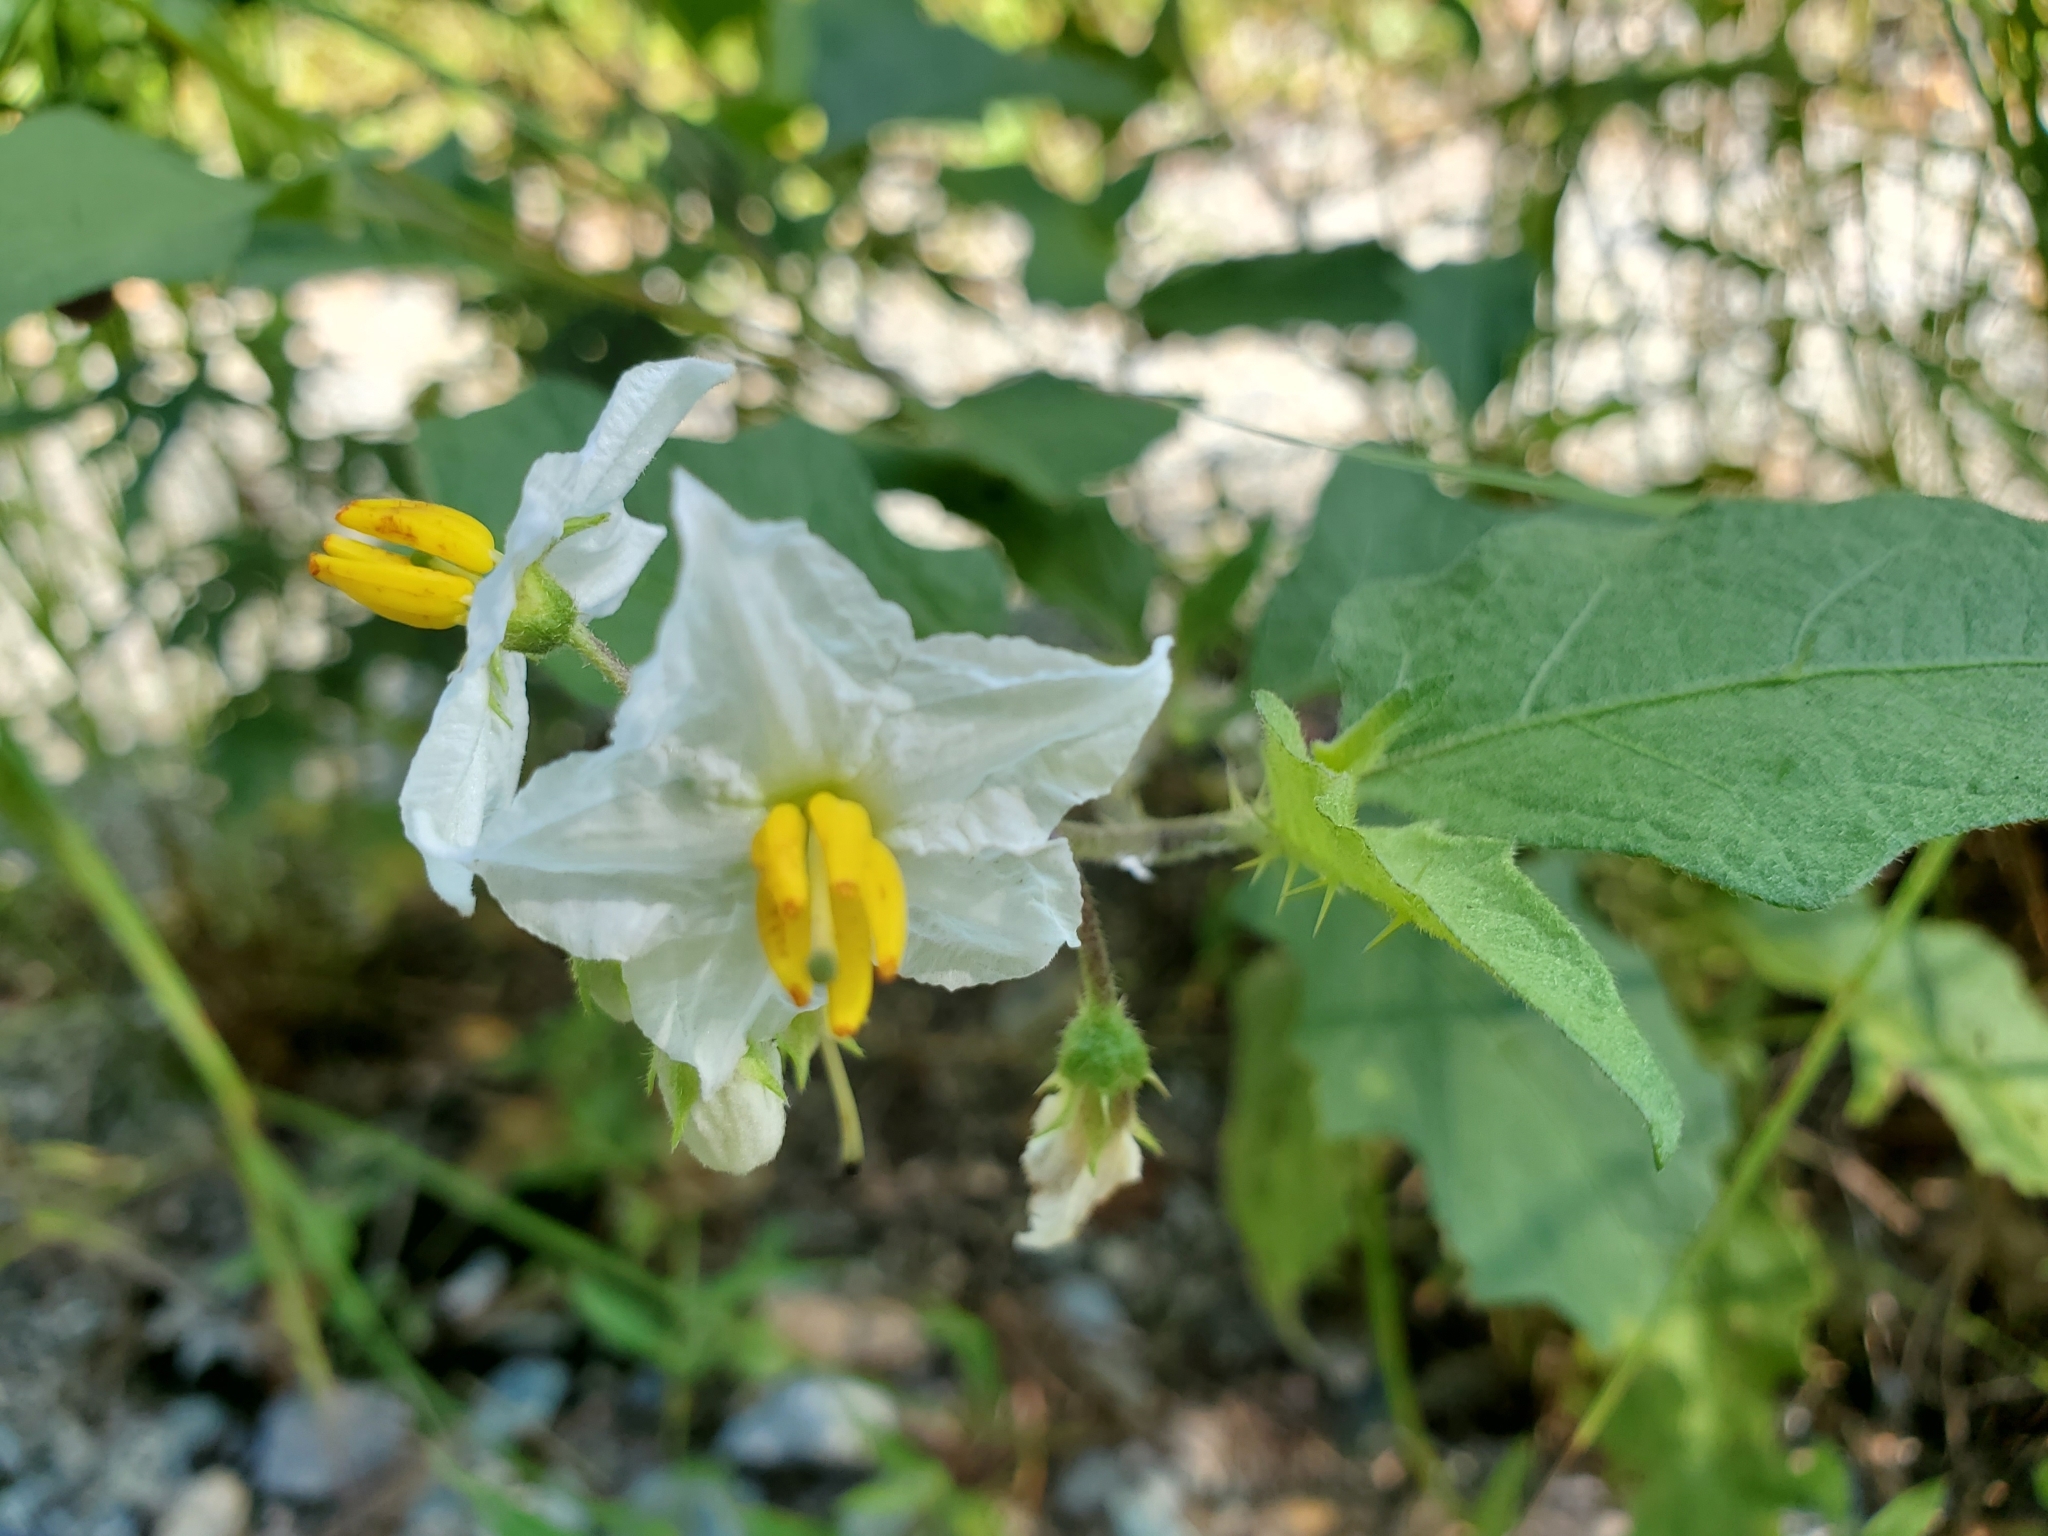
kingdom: Plantae
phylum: Tracheophyta
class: Magnoliopsida
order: Solanales
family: Solanaceae
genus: Solanum
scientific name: Solanum carolinense
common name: Horse-nettle
